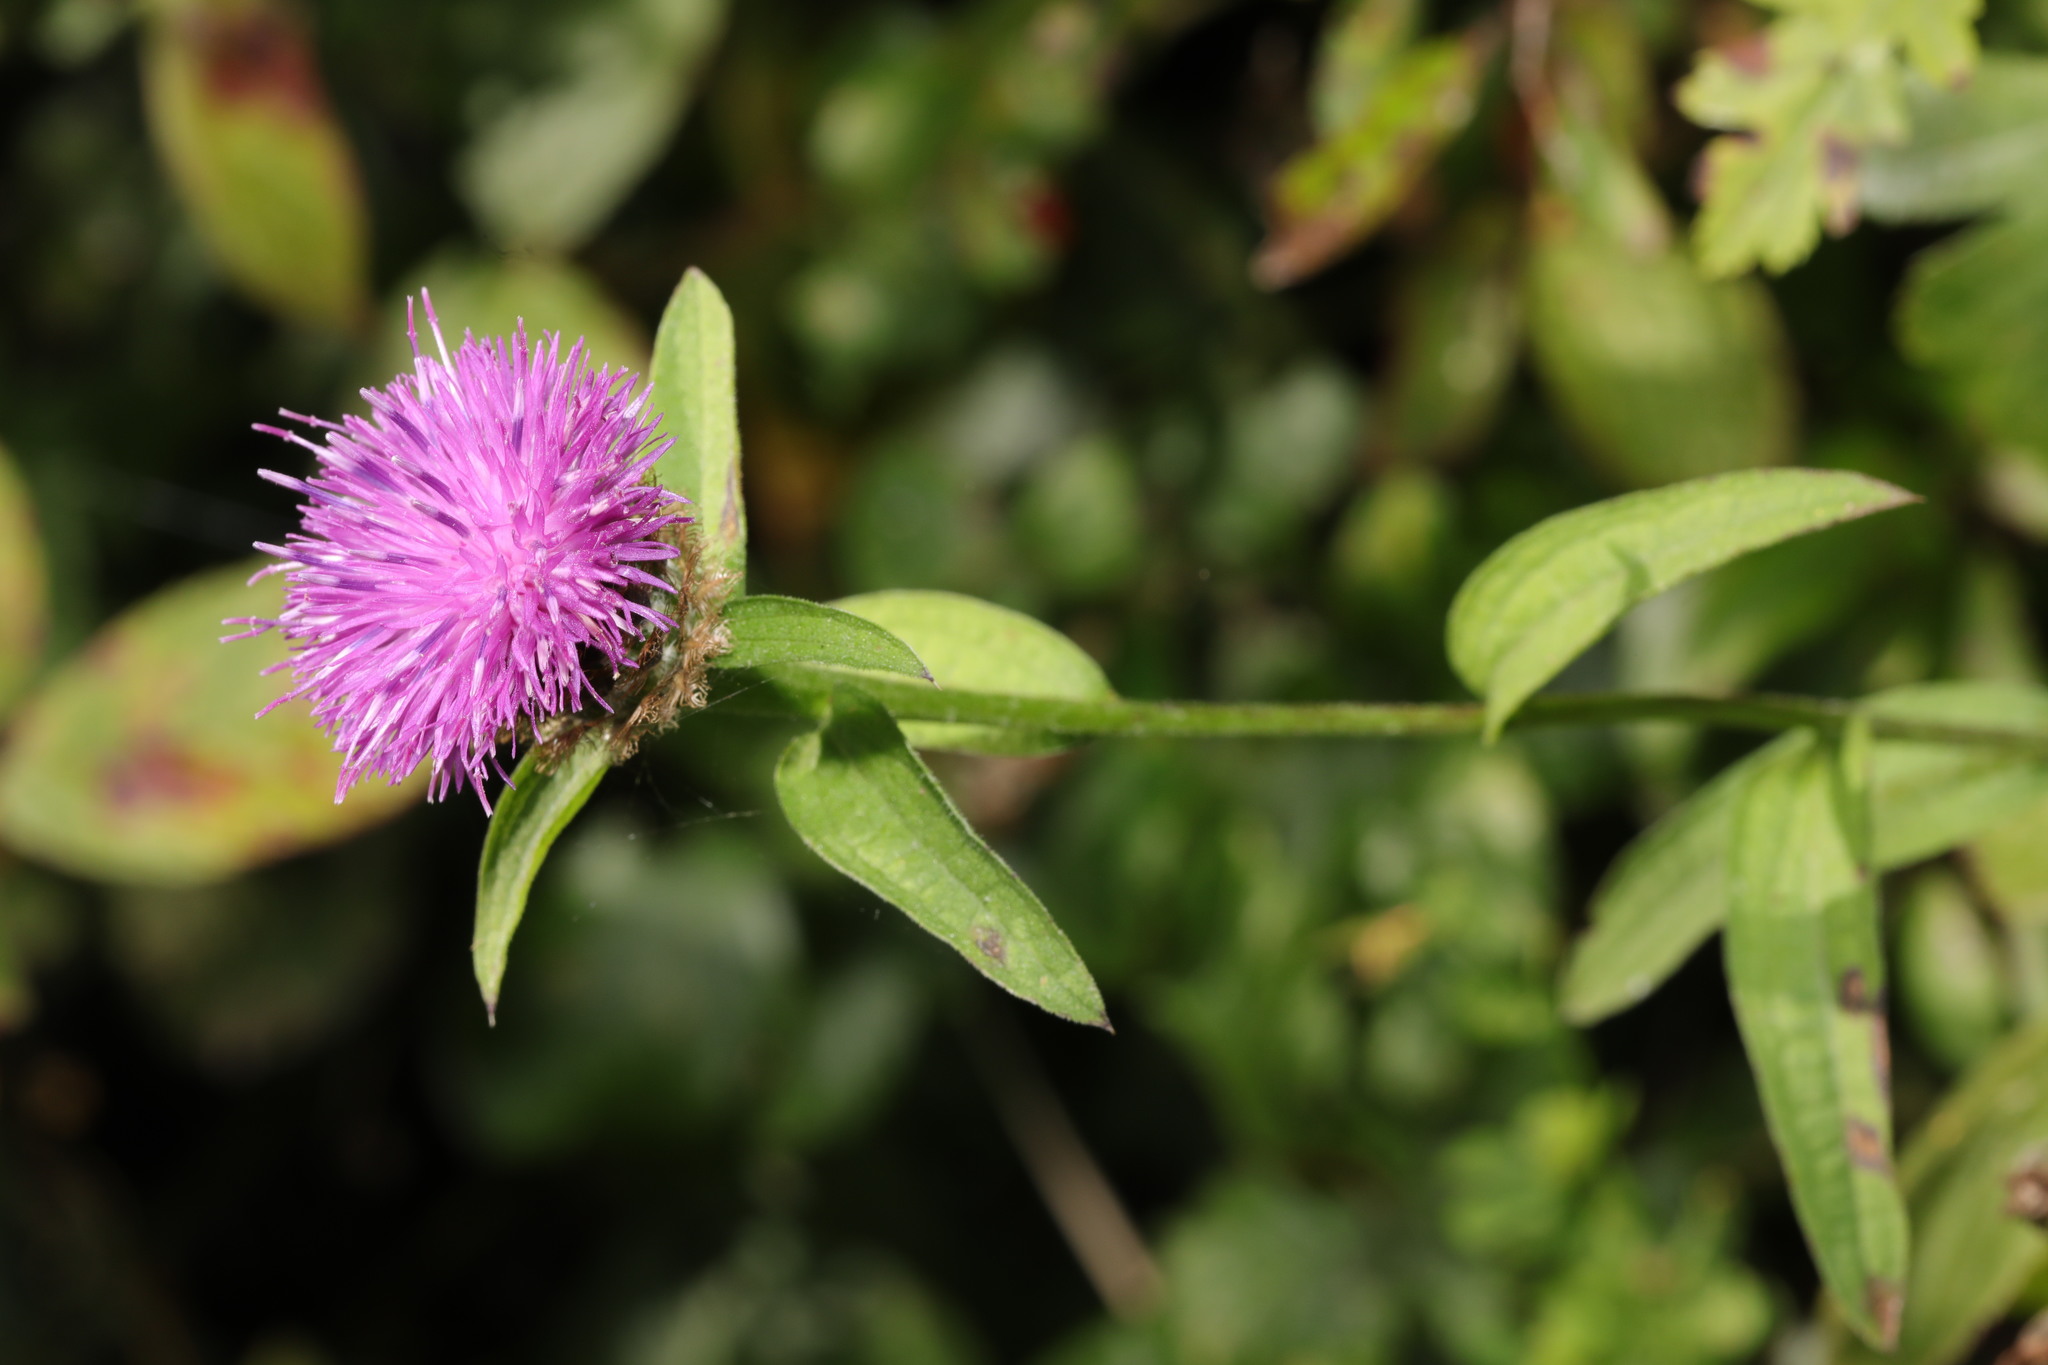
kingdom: Plantae
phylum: Tracheophyta
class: Magnoliopsida
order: Asterales
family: Asteraceae
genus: Centaurea
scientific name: Centaurea nigra
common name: Lesser knapweed
